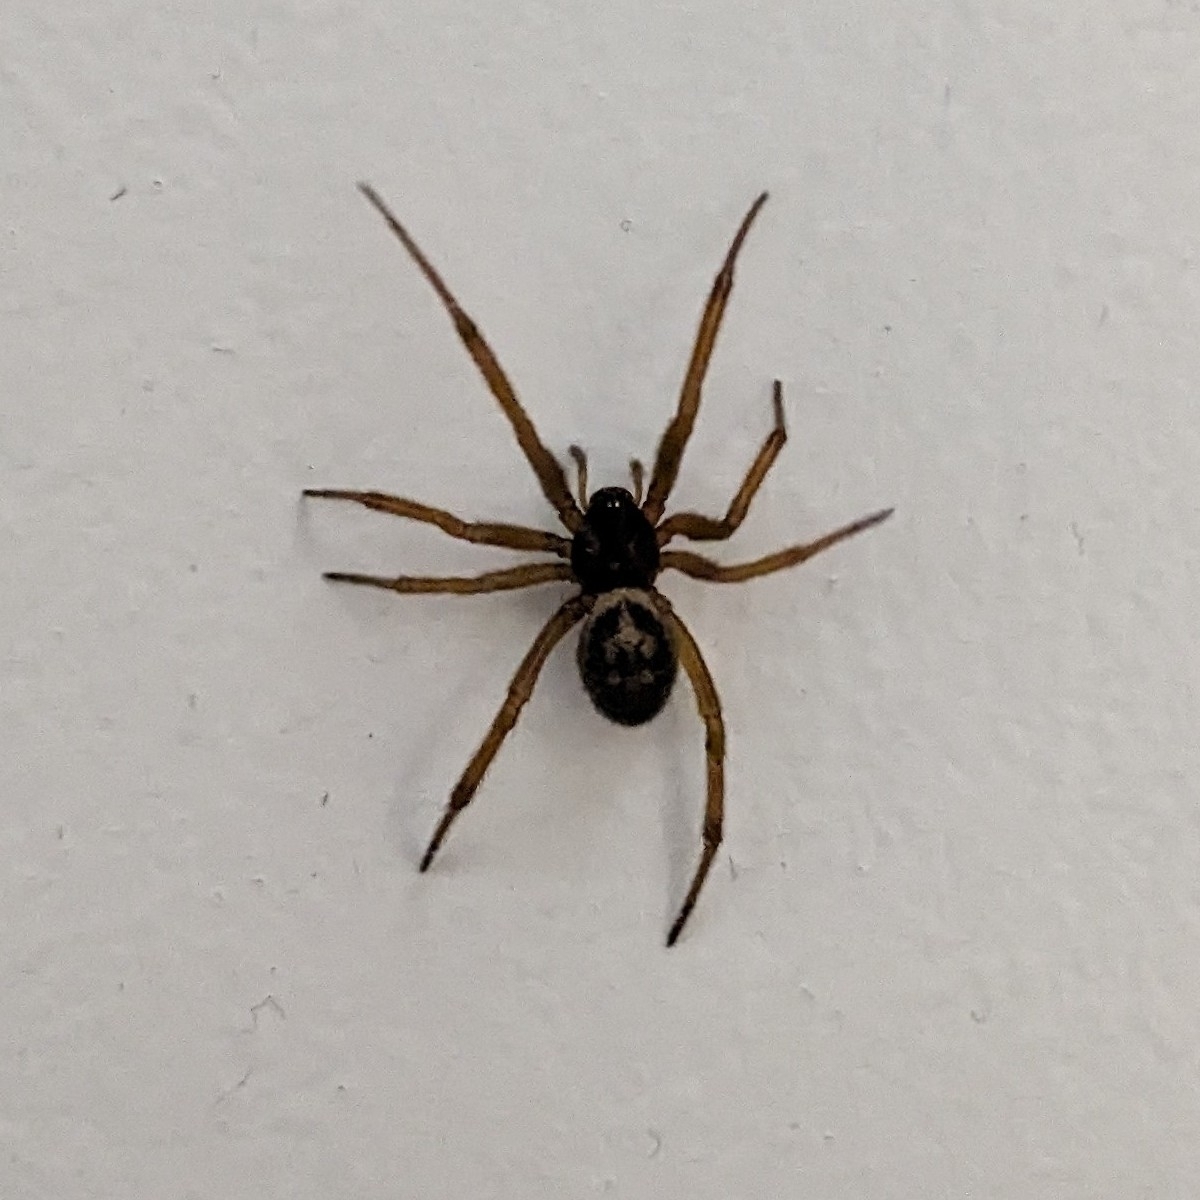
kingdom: Animalia
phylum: Arthropoda
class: Arachnida
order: Araneae
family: Theridiidae
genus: Steatoda
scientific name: Steatoda nobilis
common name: Cobweb weaver
